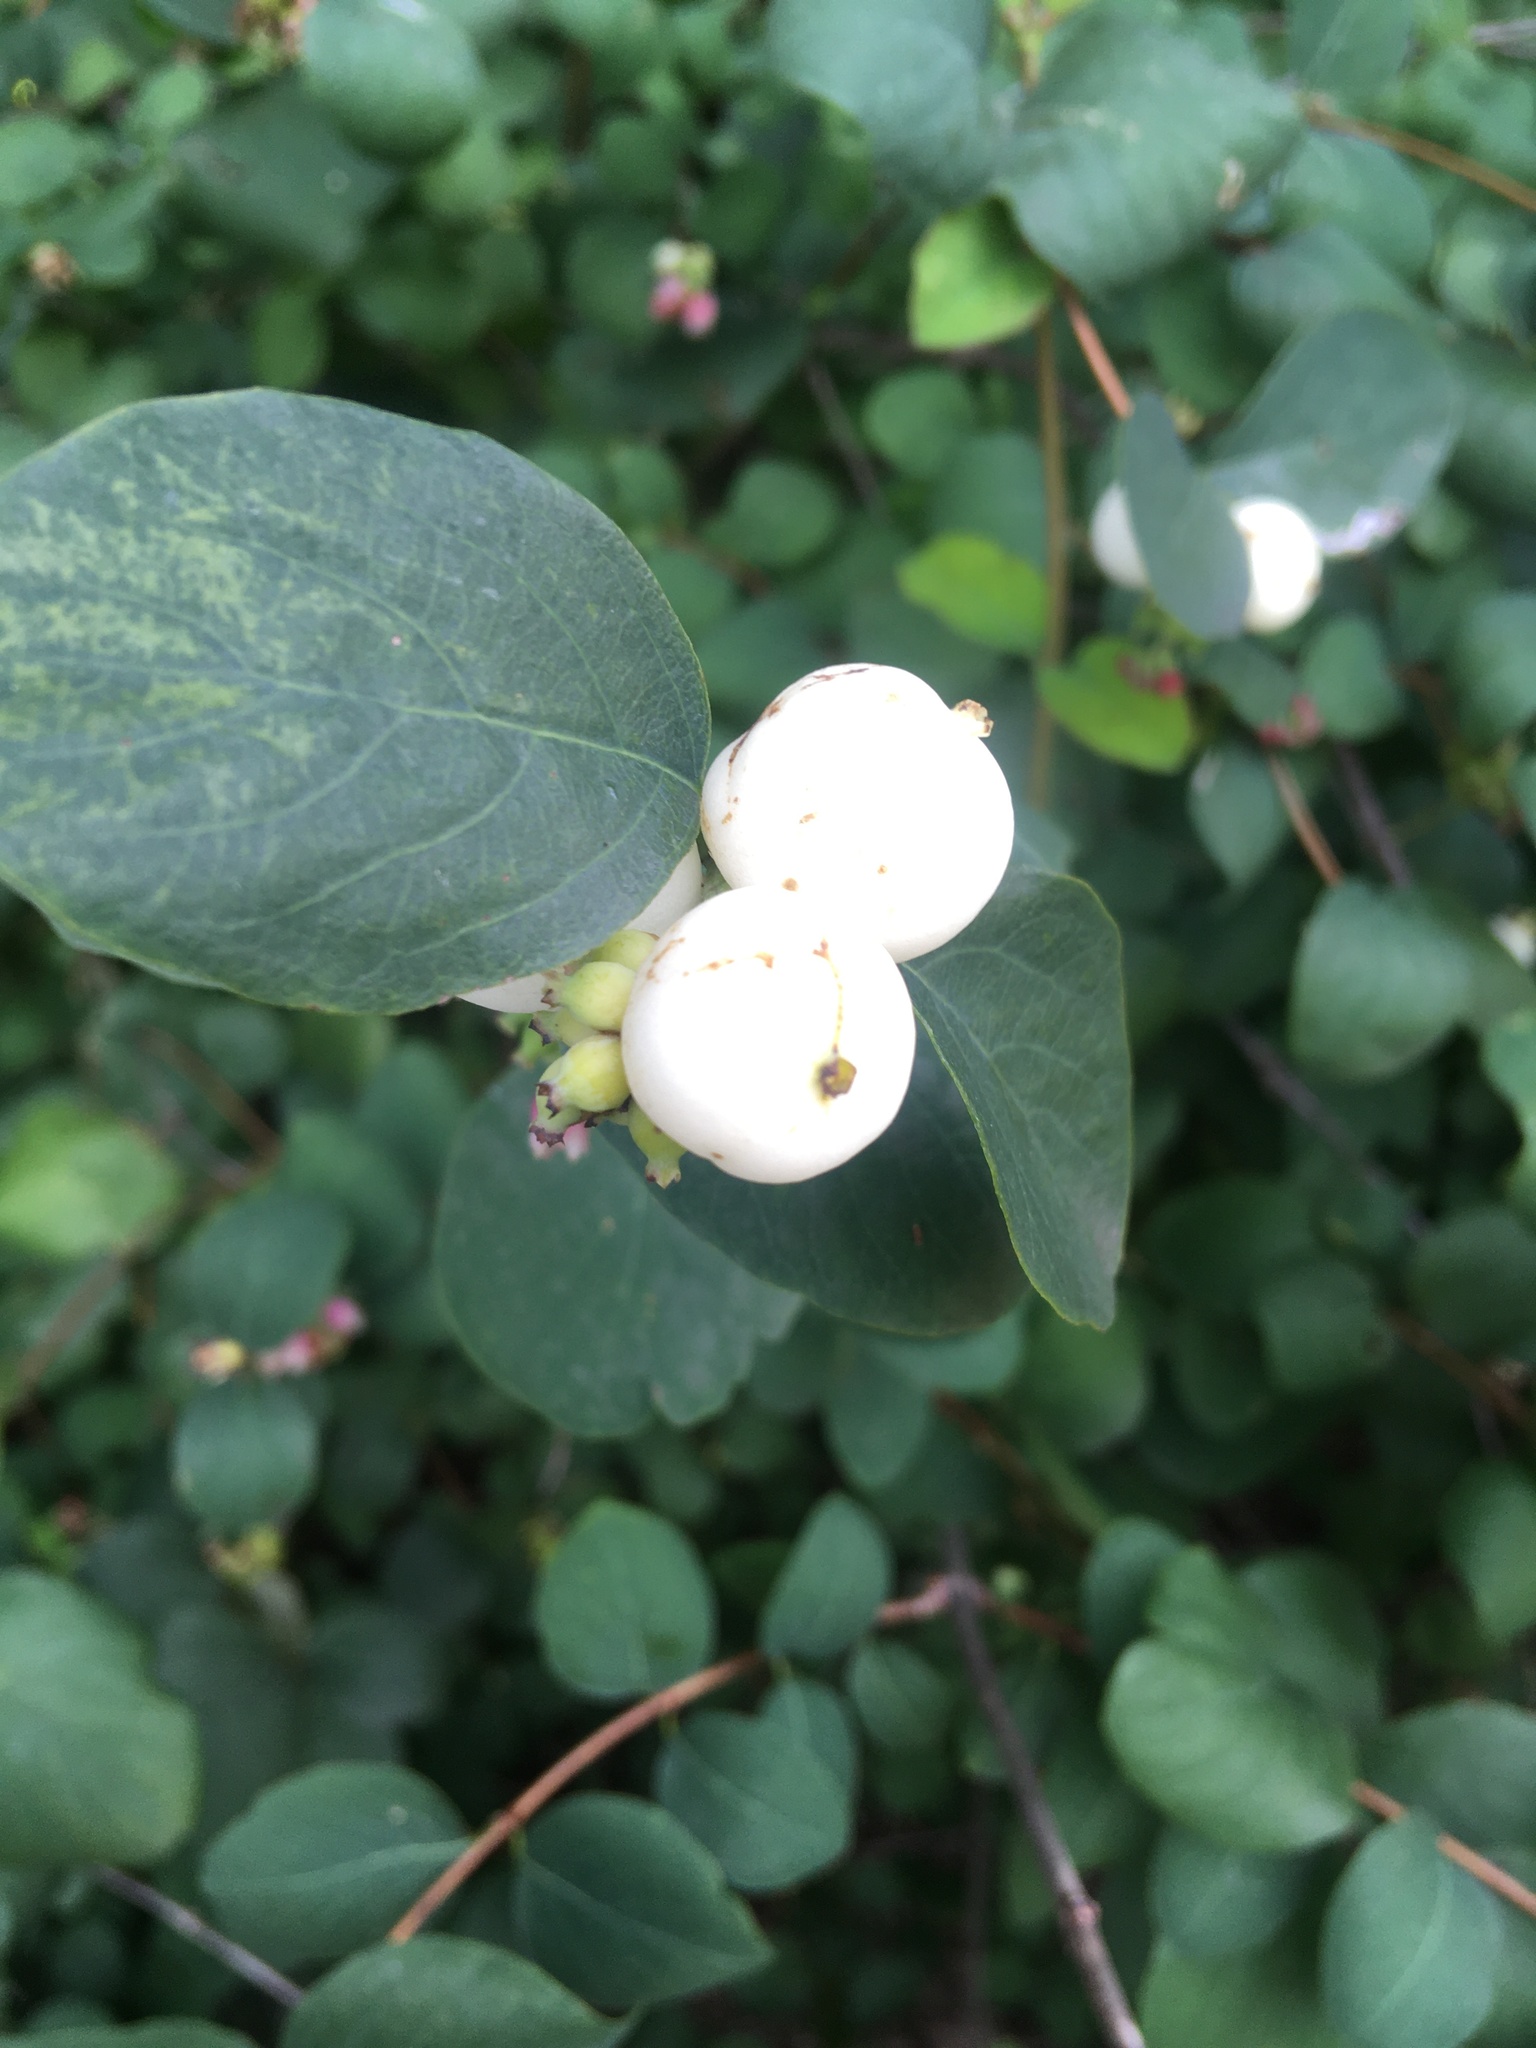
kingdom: Plantae
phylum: Tracheophyta
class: Magnoliopsida
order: Dipsacales
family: Caprifoliaceae
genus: Symphoricarpos
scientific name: Symphoricarpos albus
